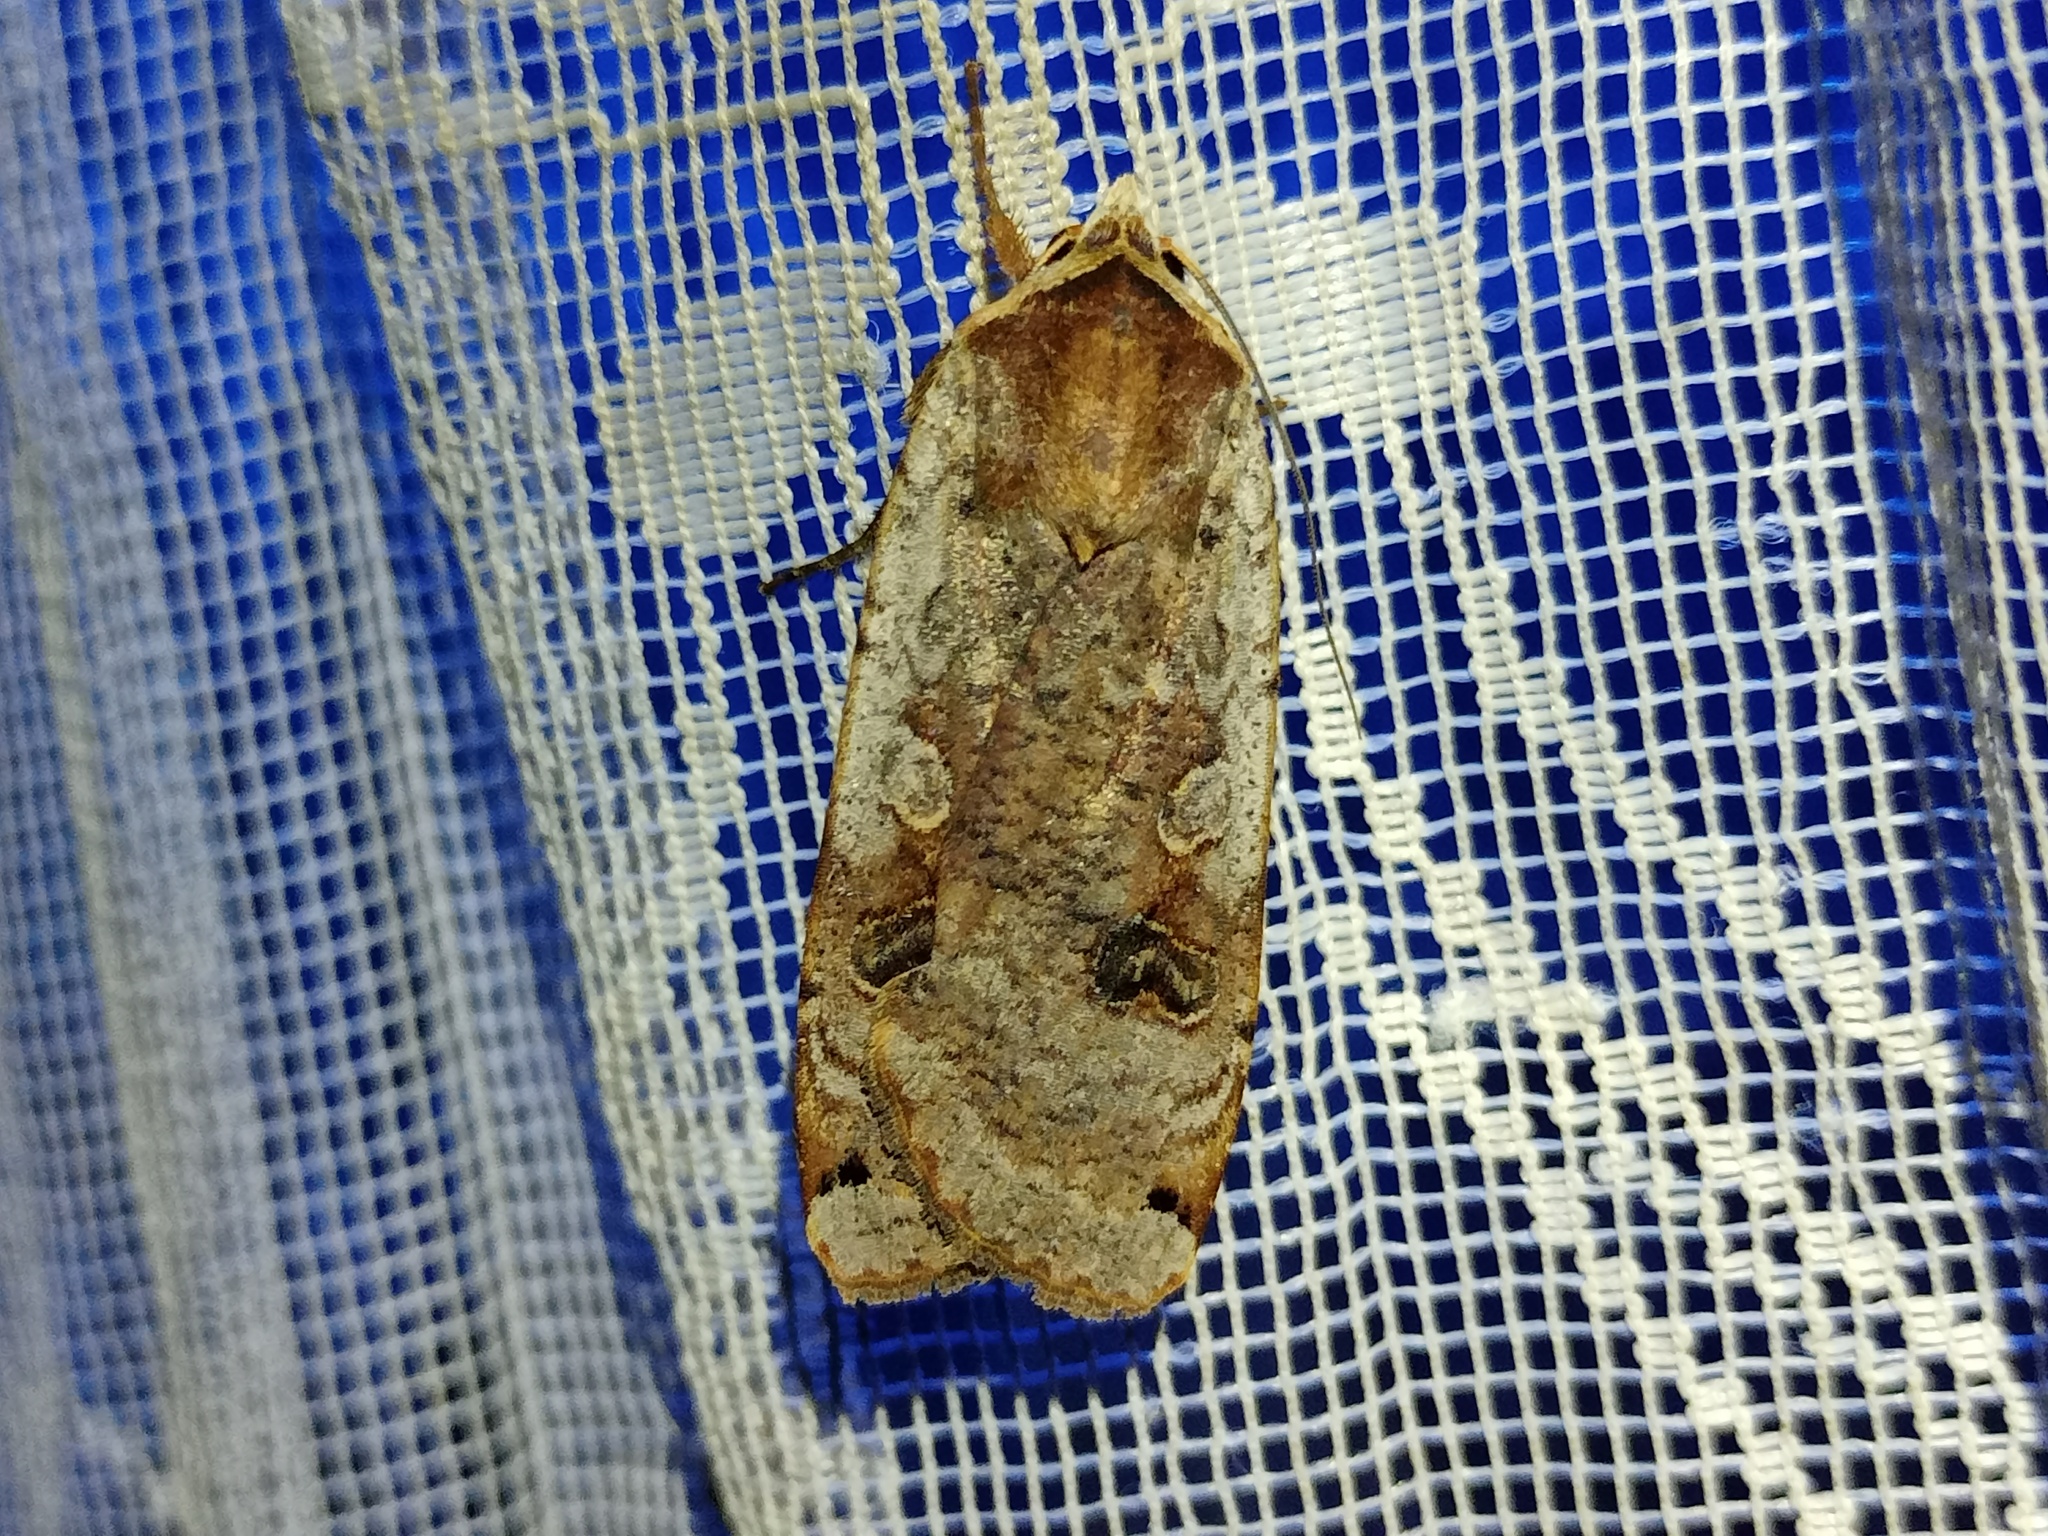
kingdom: Animalia
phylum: Arthropoda
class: Insecta
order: Lepidoptera
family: Noctuidae
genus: Noctua
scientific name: Noctua pronuba
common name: Large yellow underwing
